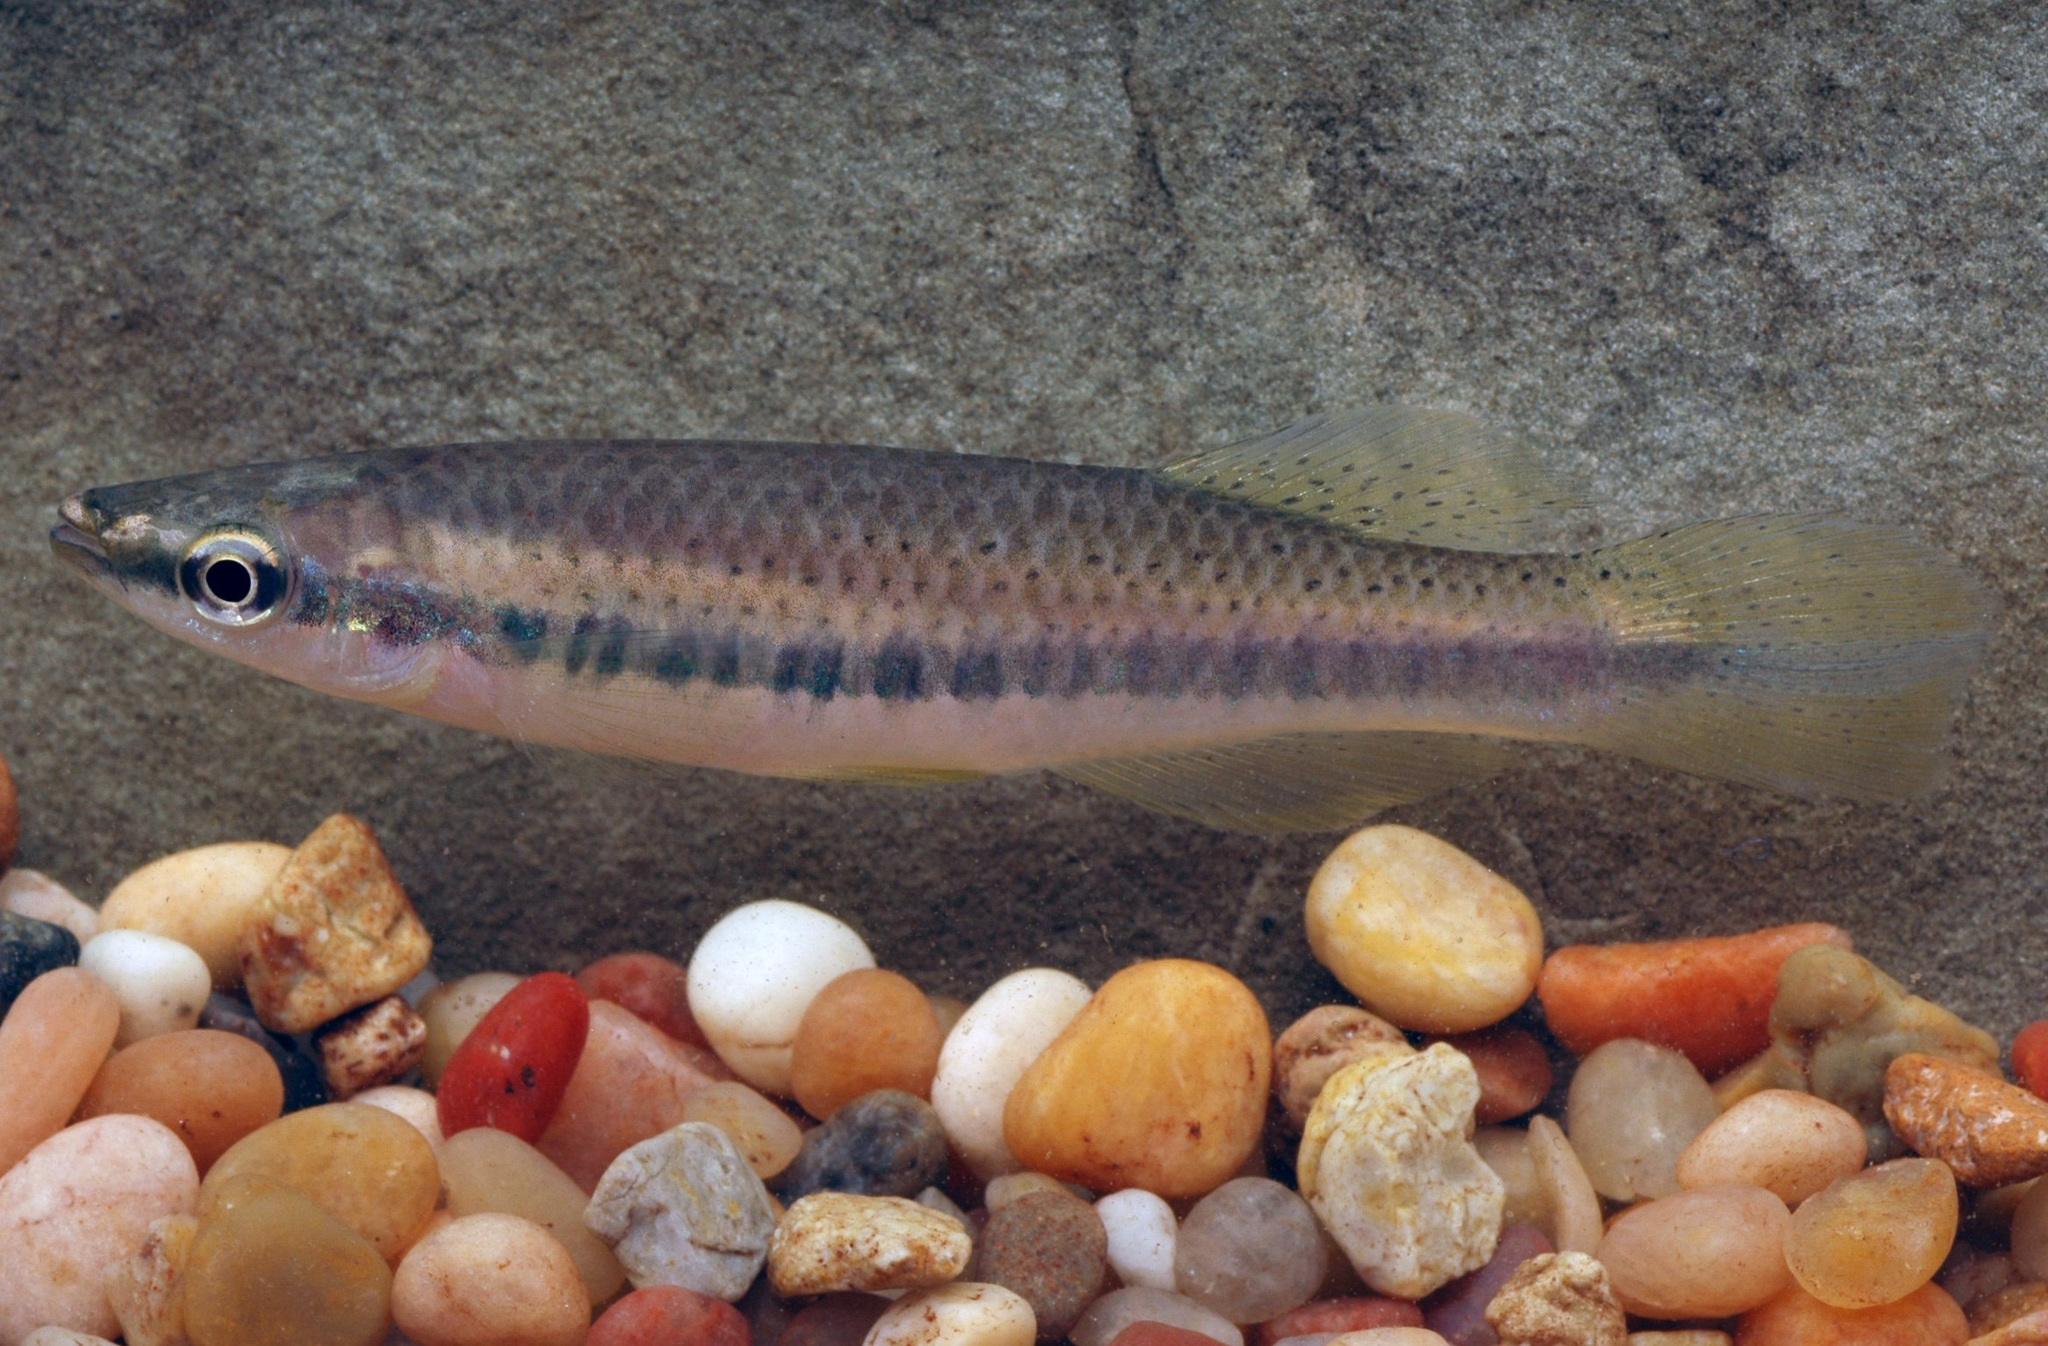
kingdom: Animalia
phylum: Chordata
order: Cyprinodontiformes
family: Fundulidae
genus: Fundulus
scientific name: Fundulus olivaceus
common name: Blackspotted topminnow
